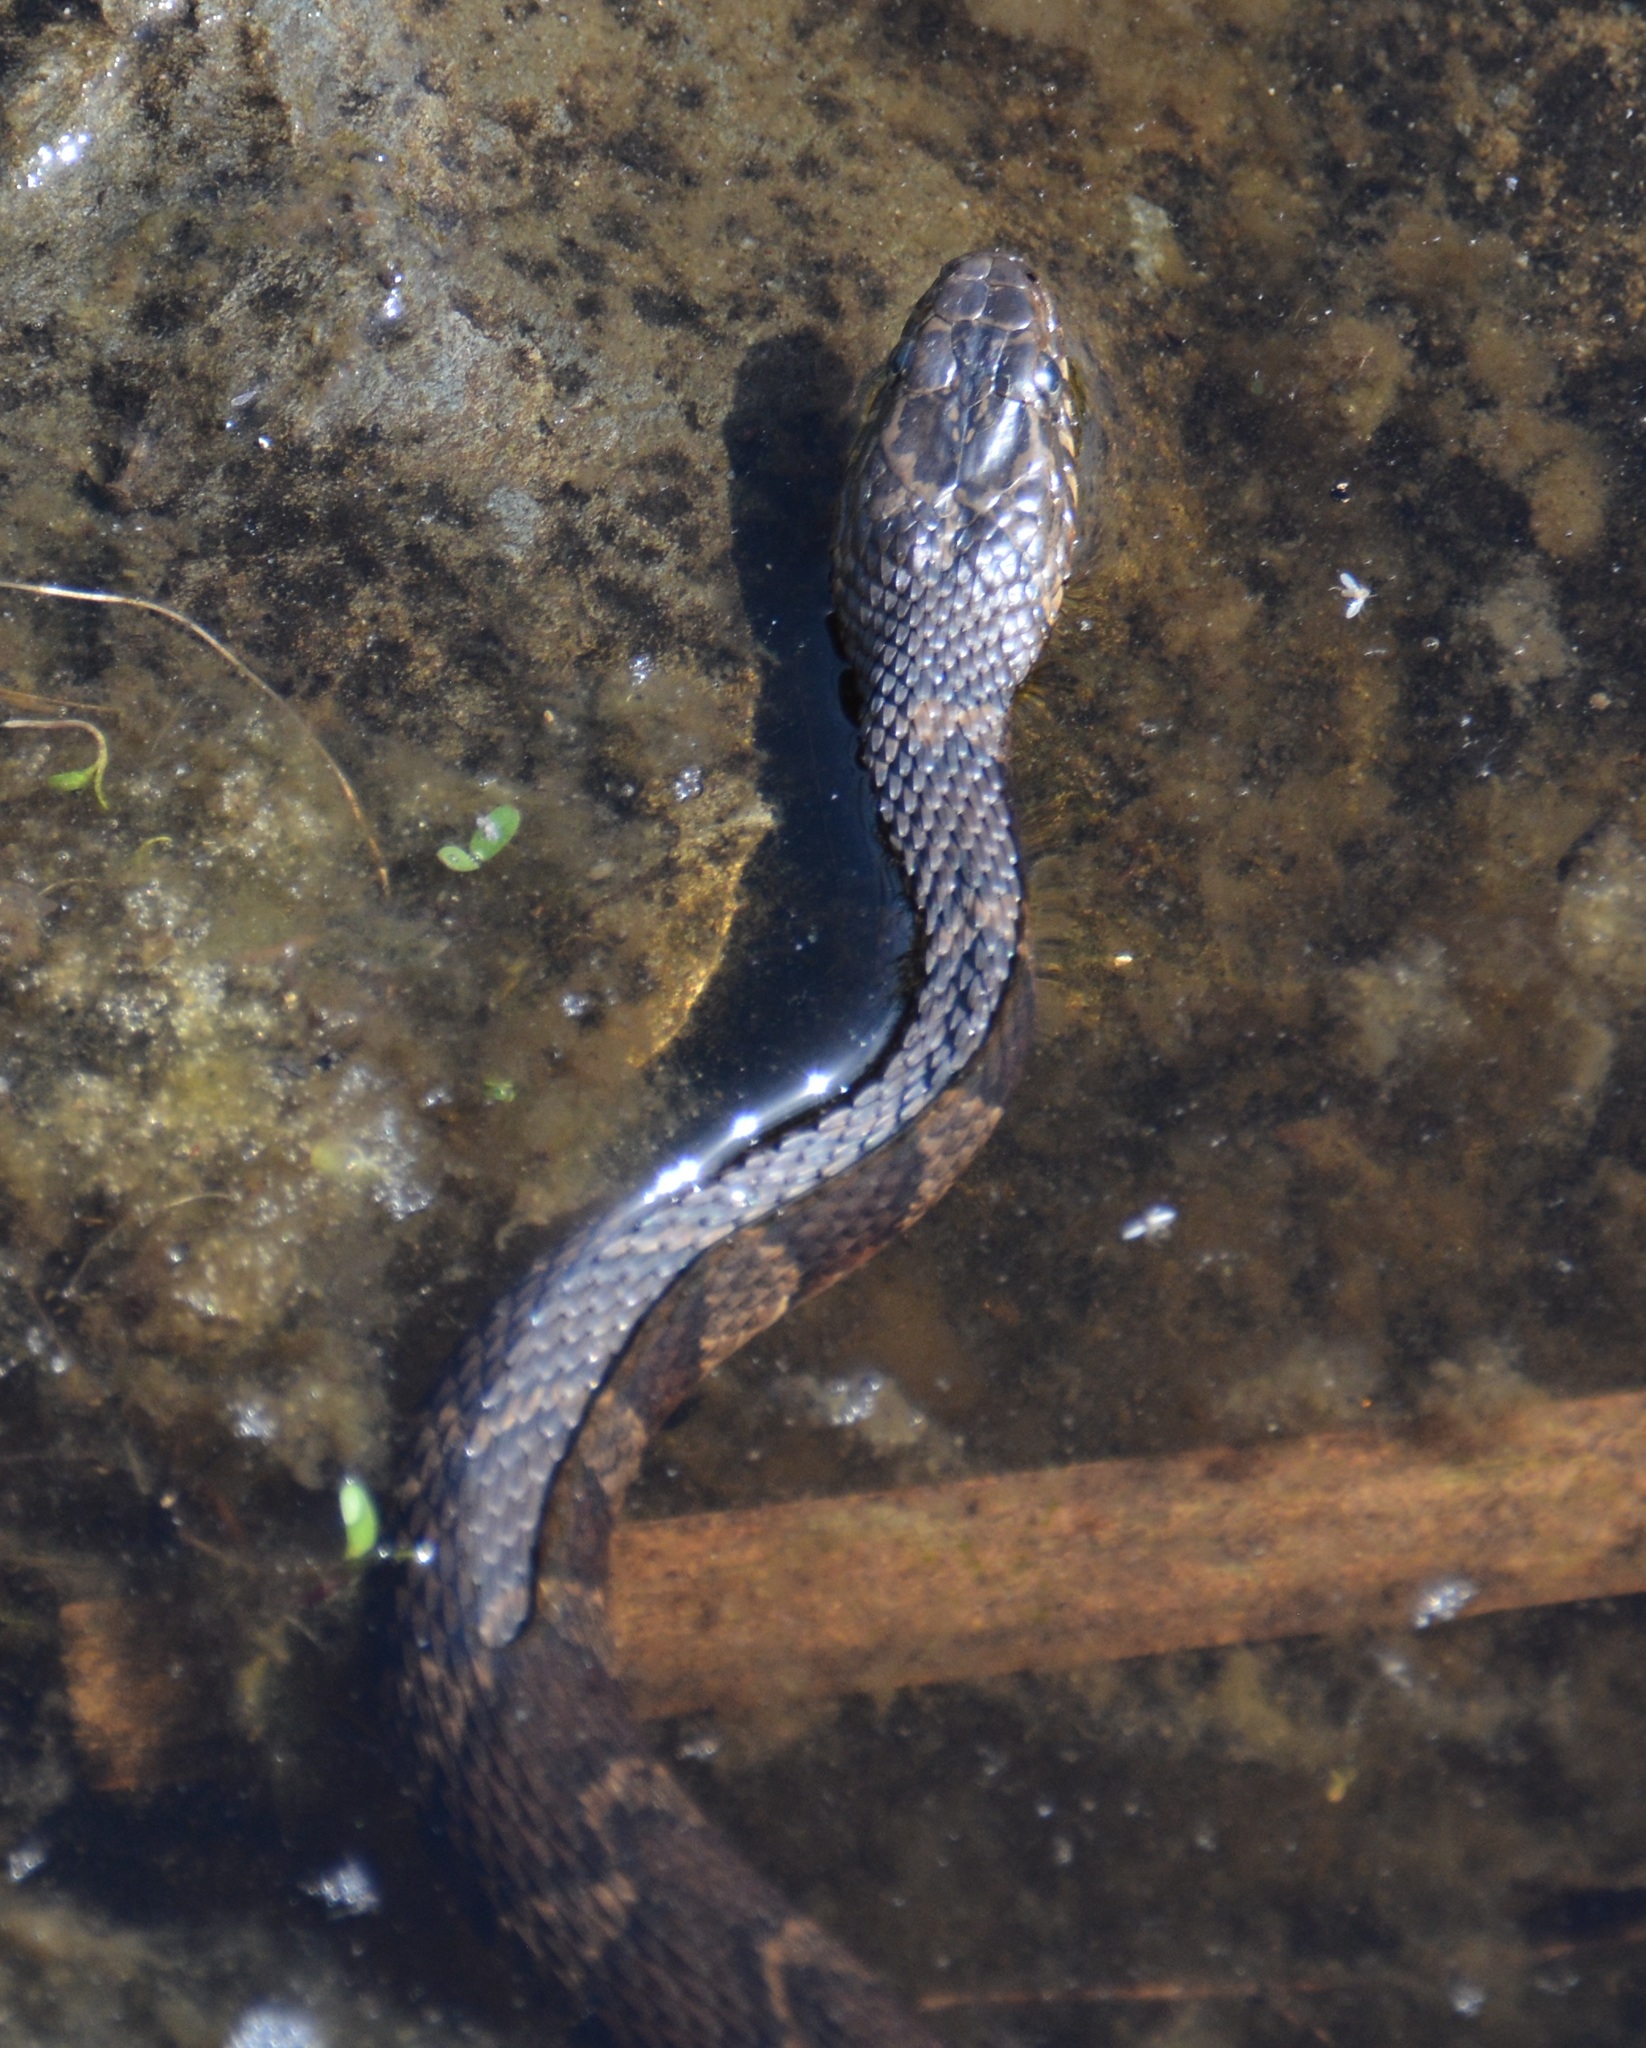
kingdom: Animalia
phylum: Chordata
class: Squamata
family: Colubridae
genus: Nerodia
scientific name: Nerodia sipedon
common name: Northern water snake
